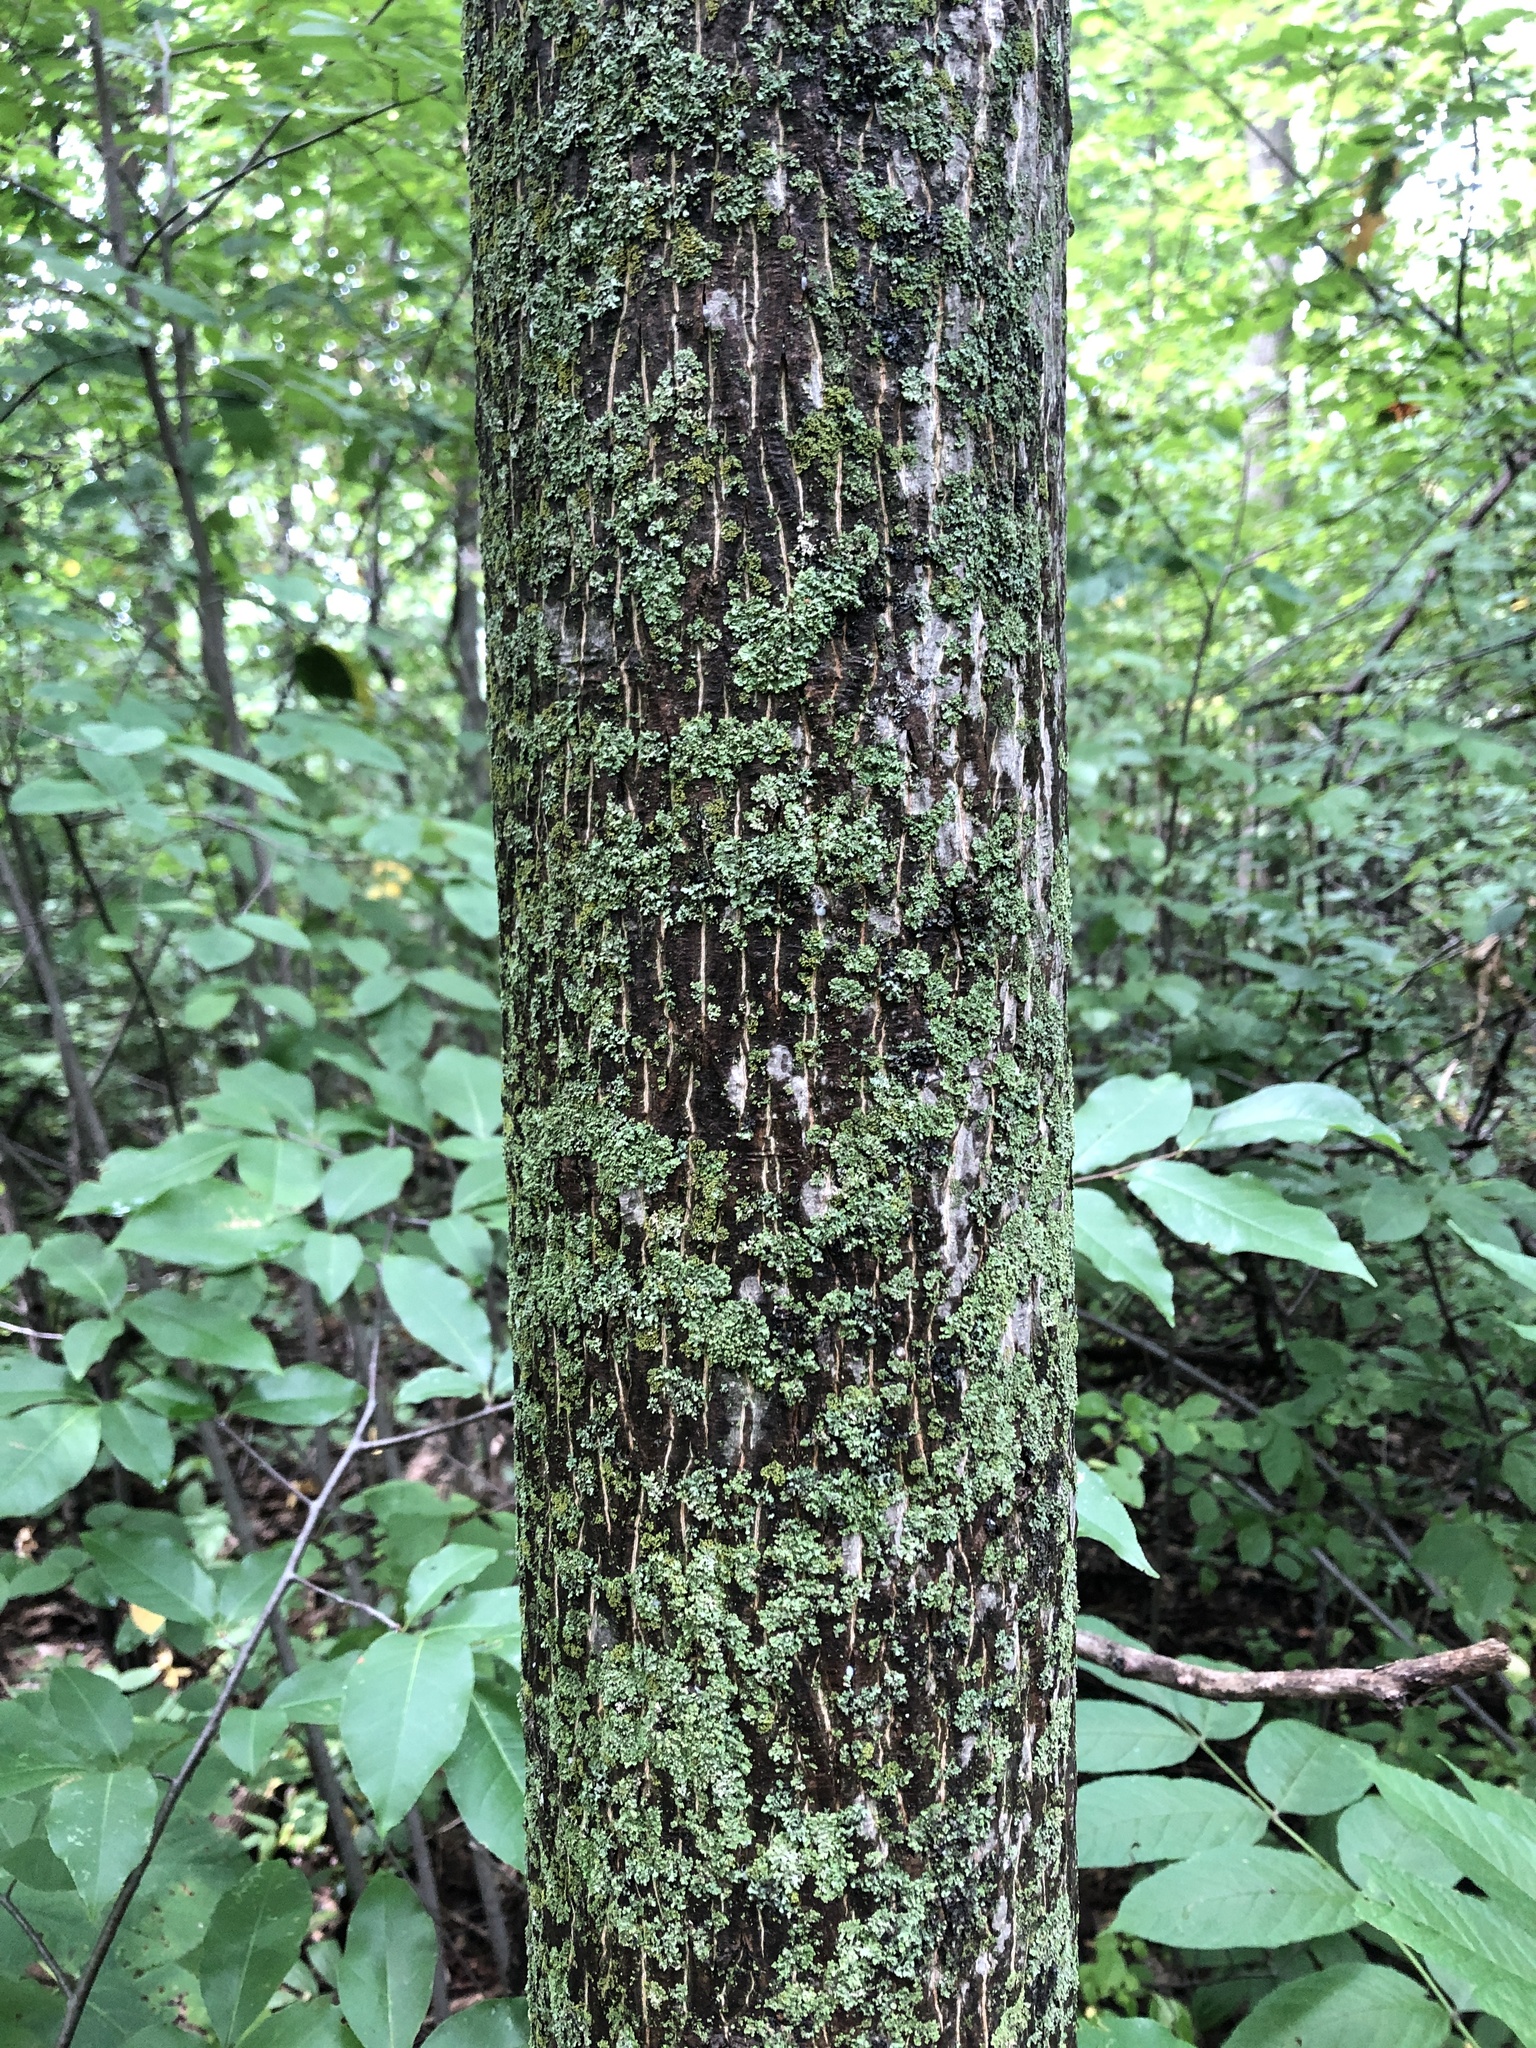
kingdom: Plantae
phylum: Tracheophyta
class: Magnoliopsida
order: Fagales
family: Juglandaceae
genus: Carya
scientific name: Carya cordiformis
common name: Bitternut hickory
